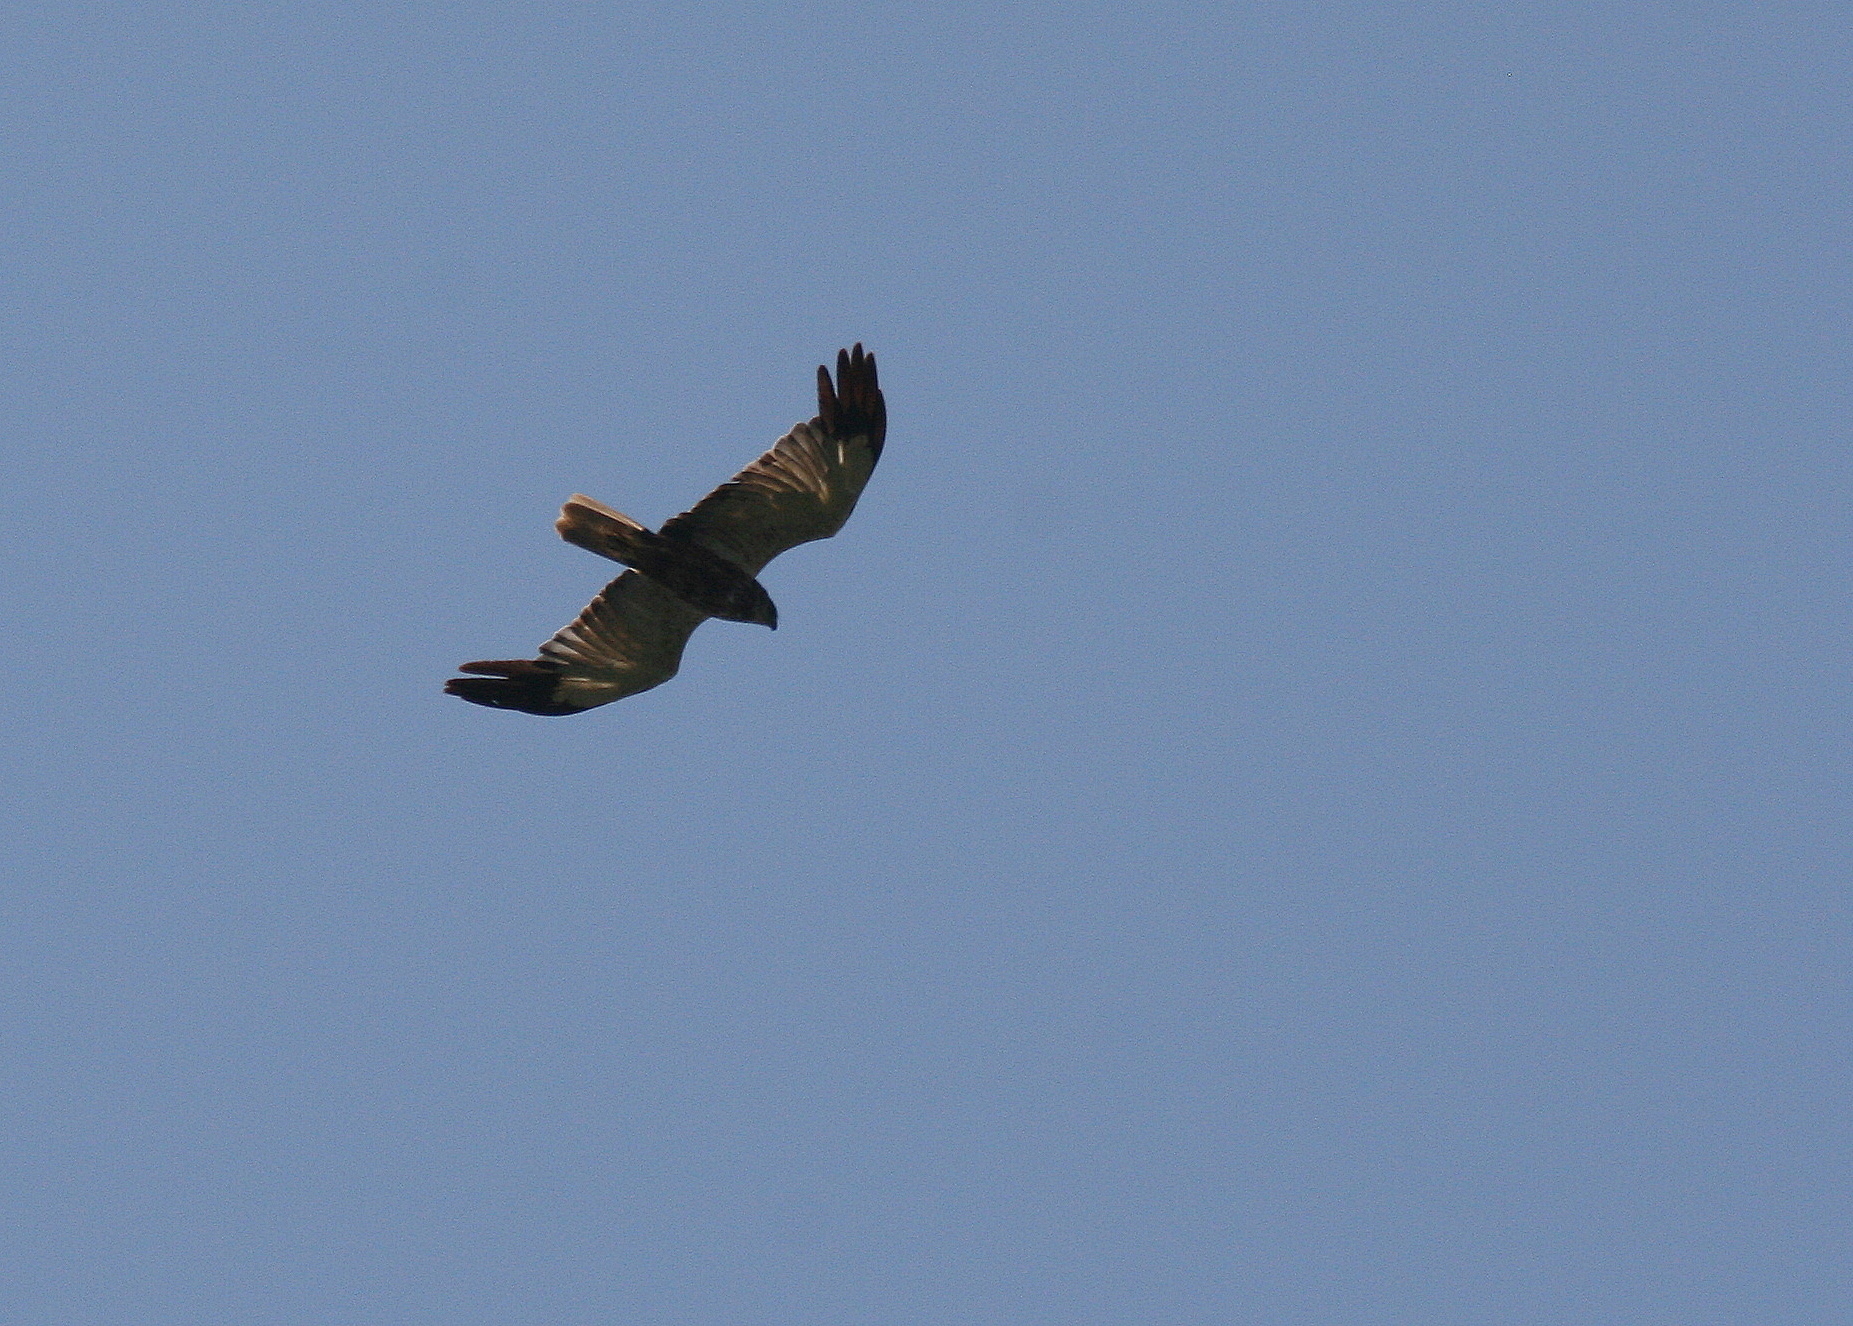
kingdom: Animalia
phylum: Chordata
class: Aves
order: Accipitriformes
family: Accipitridae
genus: Circus
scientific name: Circus aeruginosus
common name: Western marsh harrier
